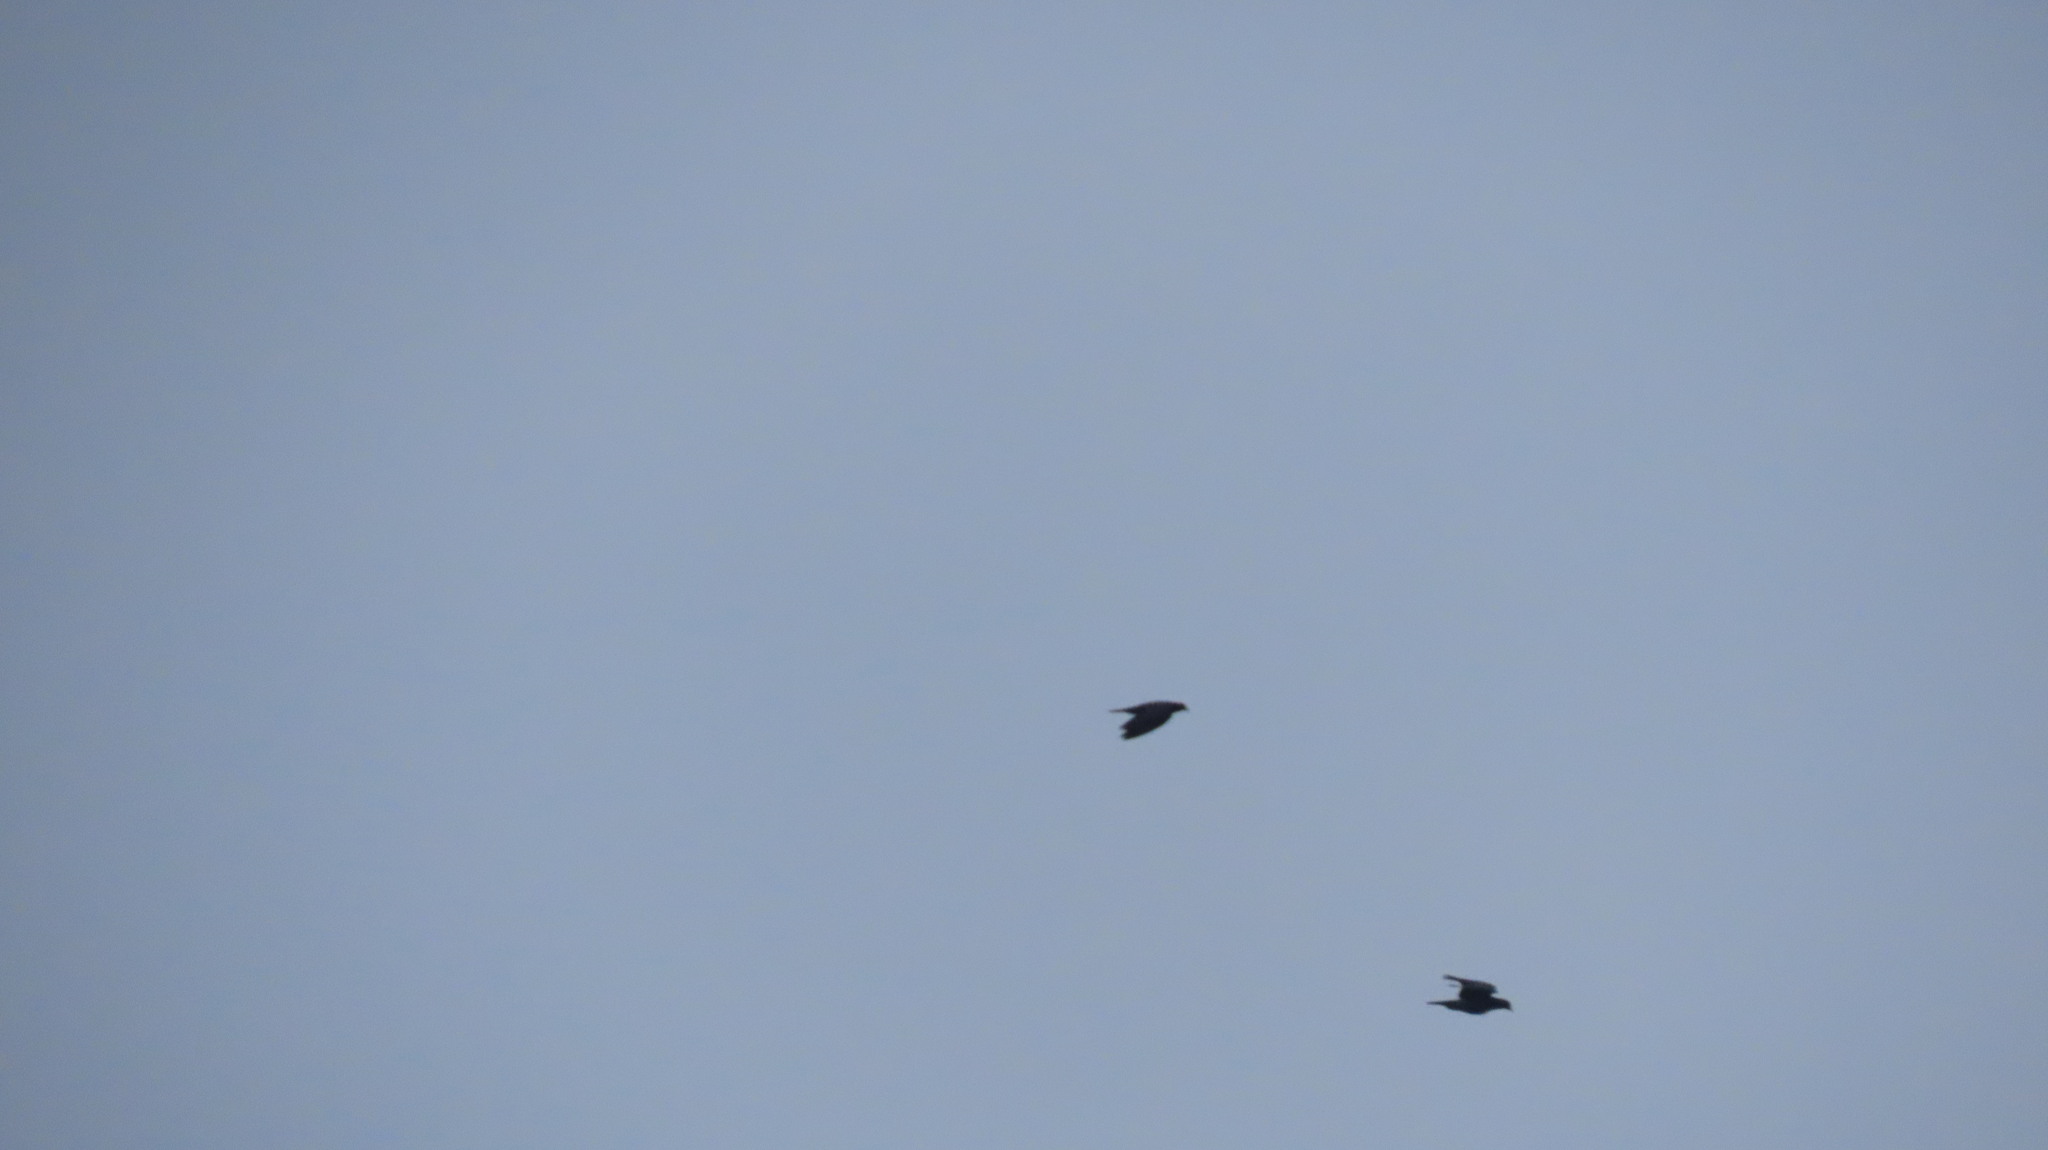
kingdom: Animalia
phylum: Chordata
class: Aves
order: Columbiformes
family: Columbidae
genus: Columba
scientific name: Columba livia
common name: Rock pigeon
